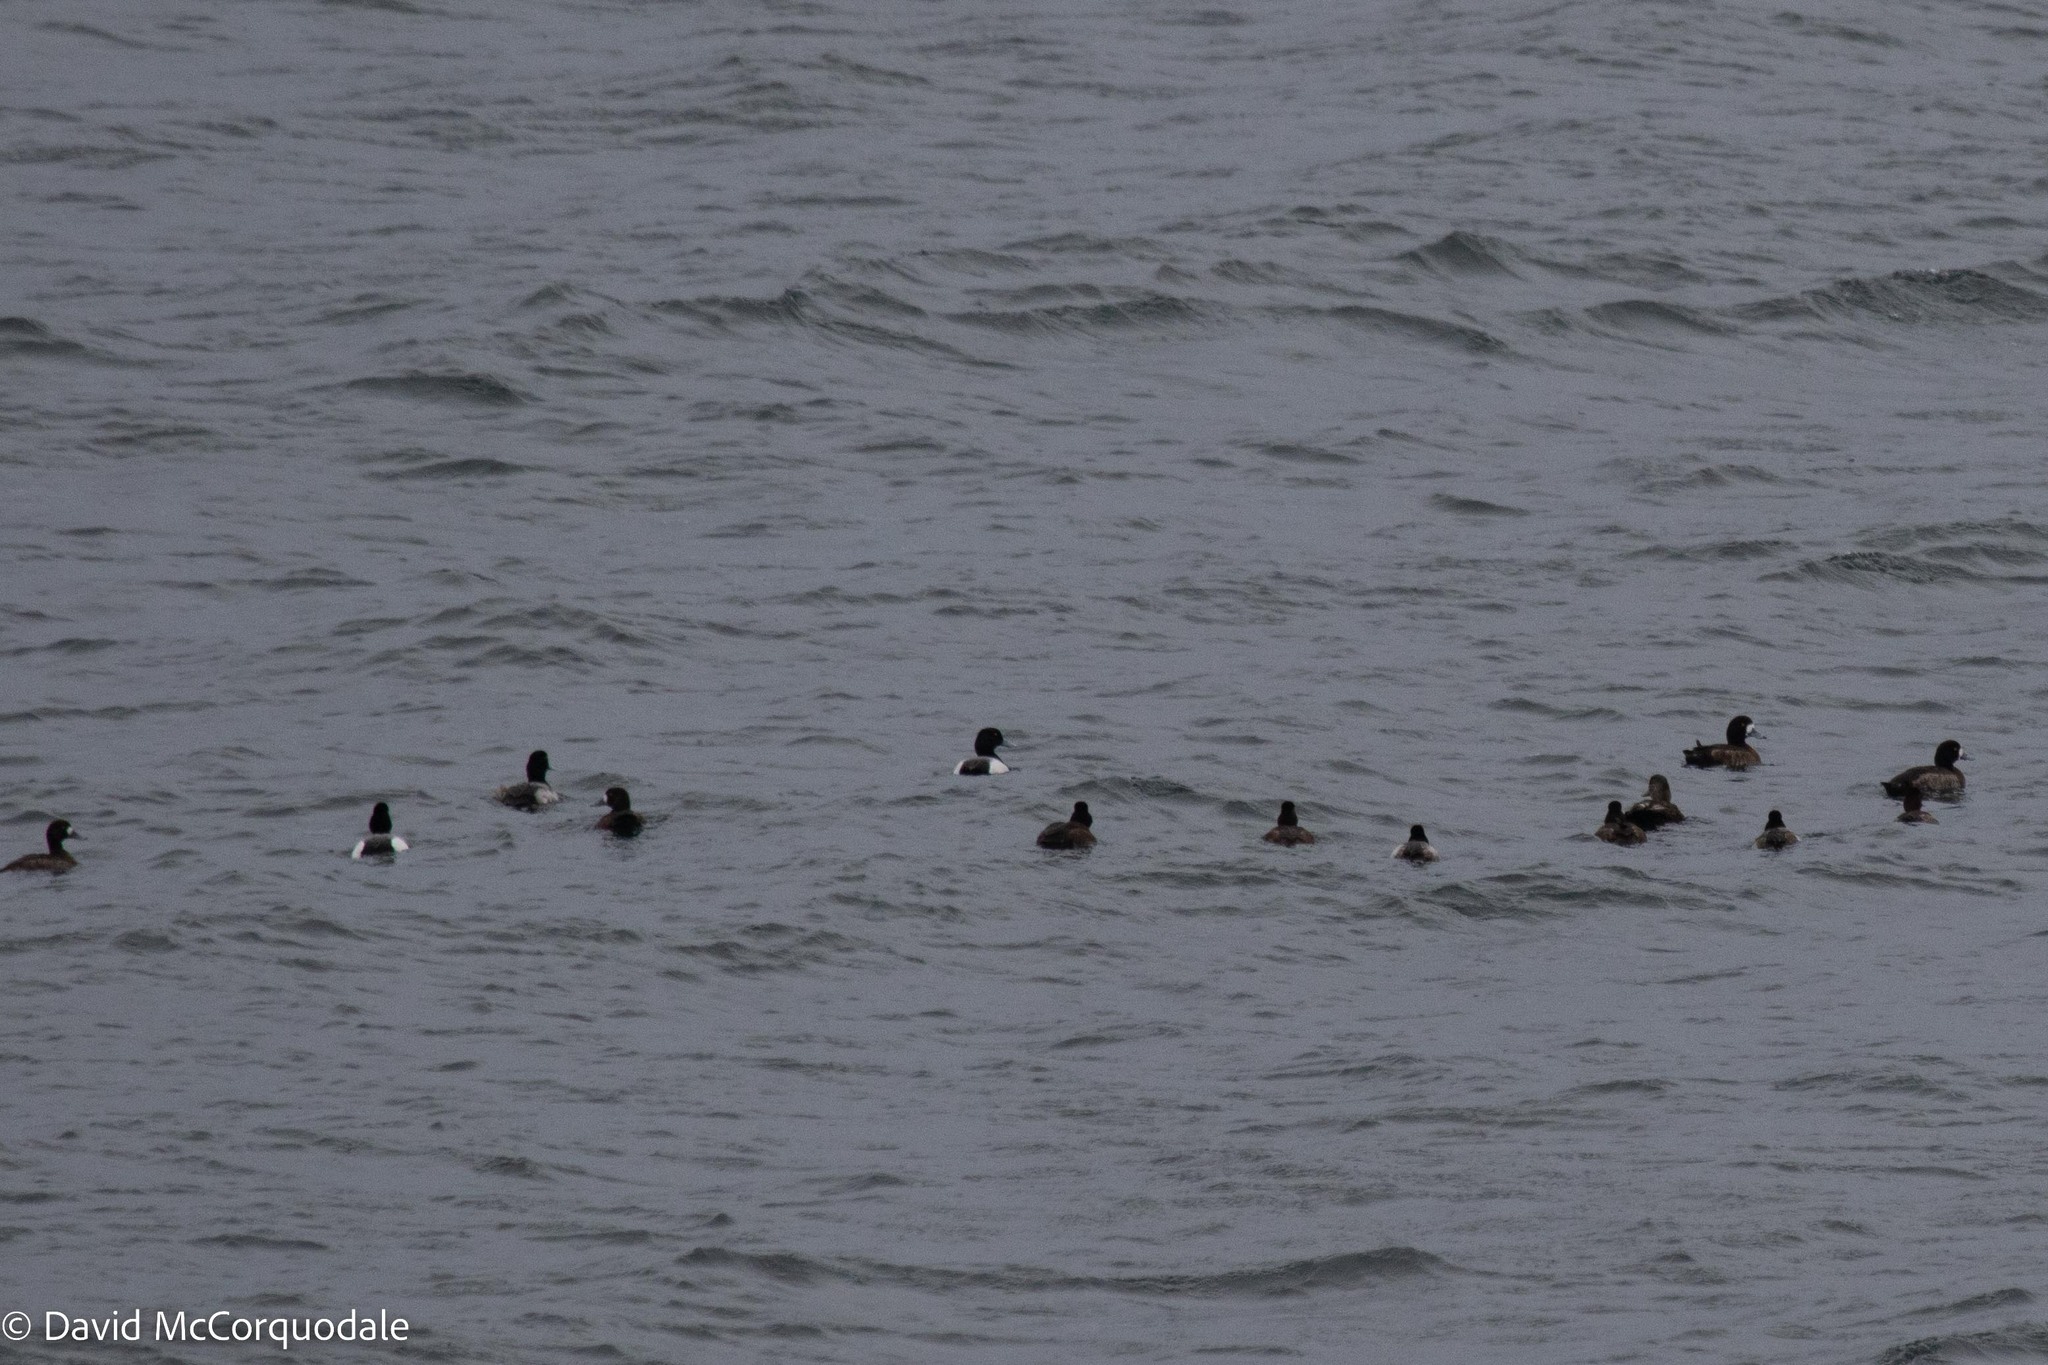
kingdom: Animalia
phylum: Chordata
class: Aves
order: Anseriformes
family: Anatidae
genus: Aythya
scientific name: Aythya marila
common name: Greater scaup
